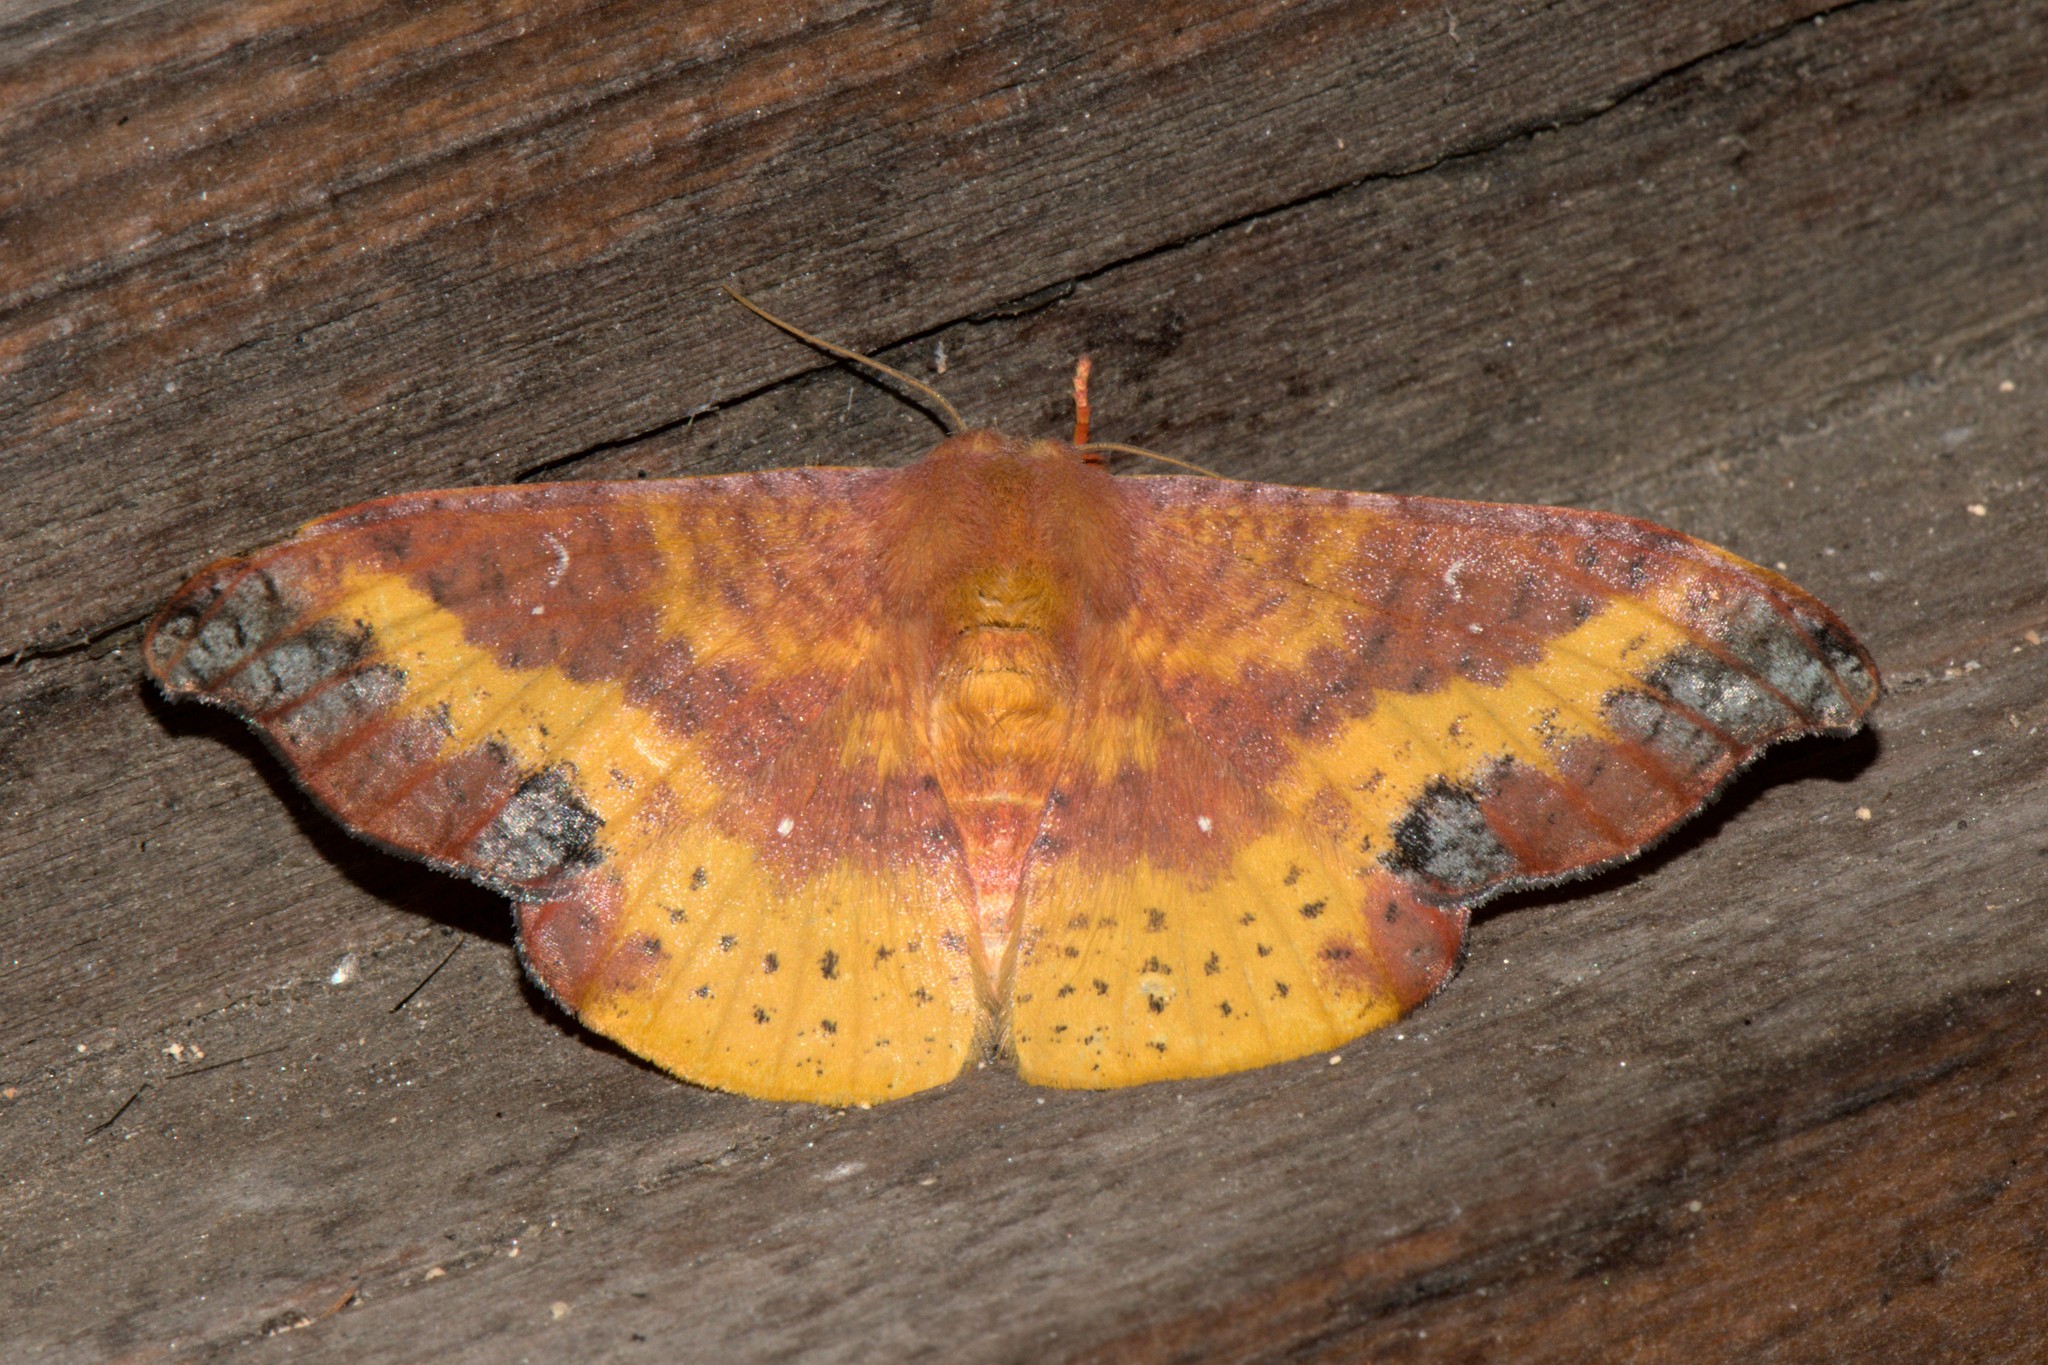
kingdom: Animalia
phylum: Arthropoda
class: Insecta
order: Lepidoptera
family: Drepanidae
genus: Oreta
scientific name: Oreta sanguinea
